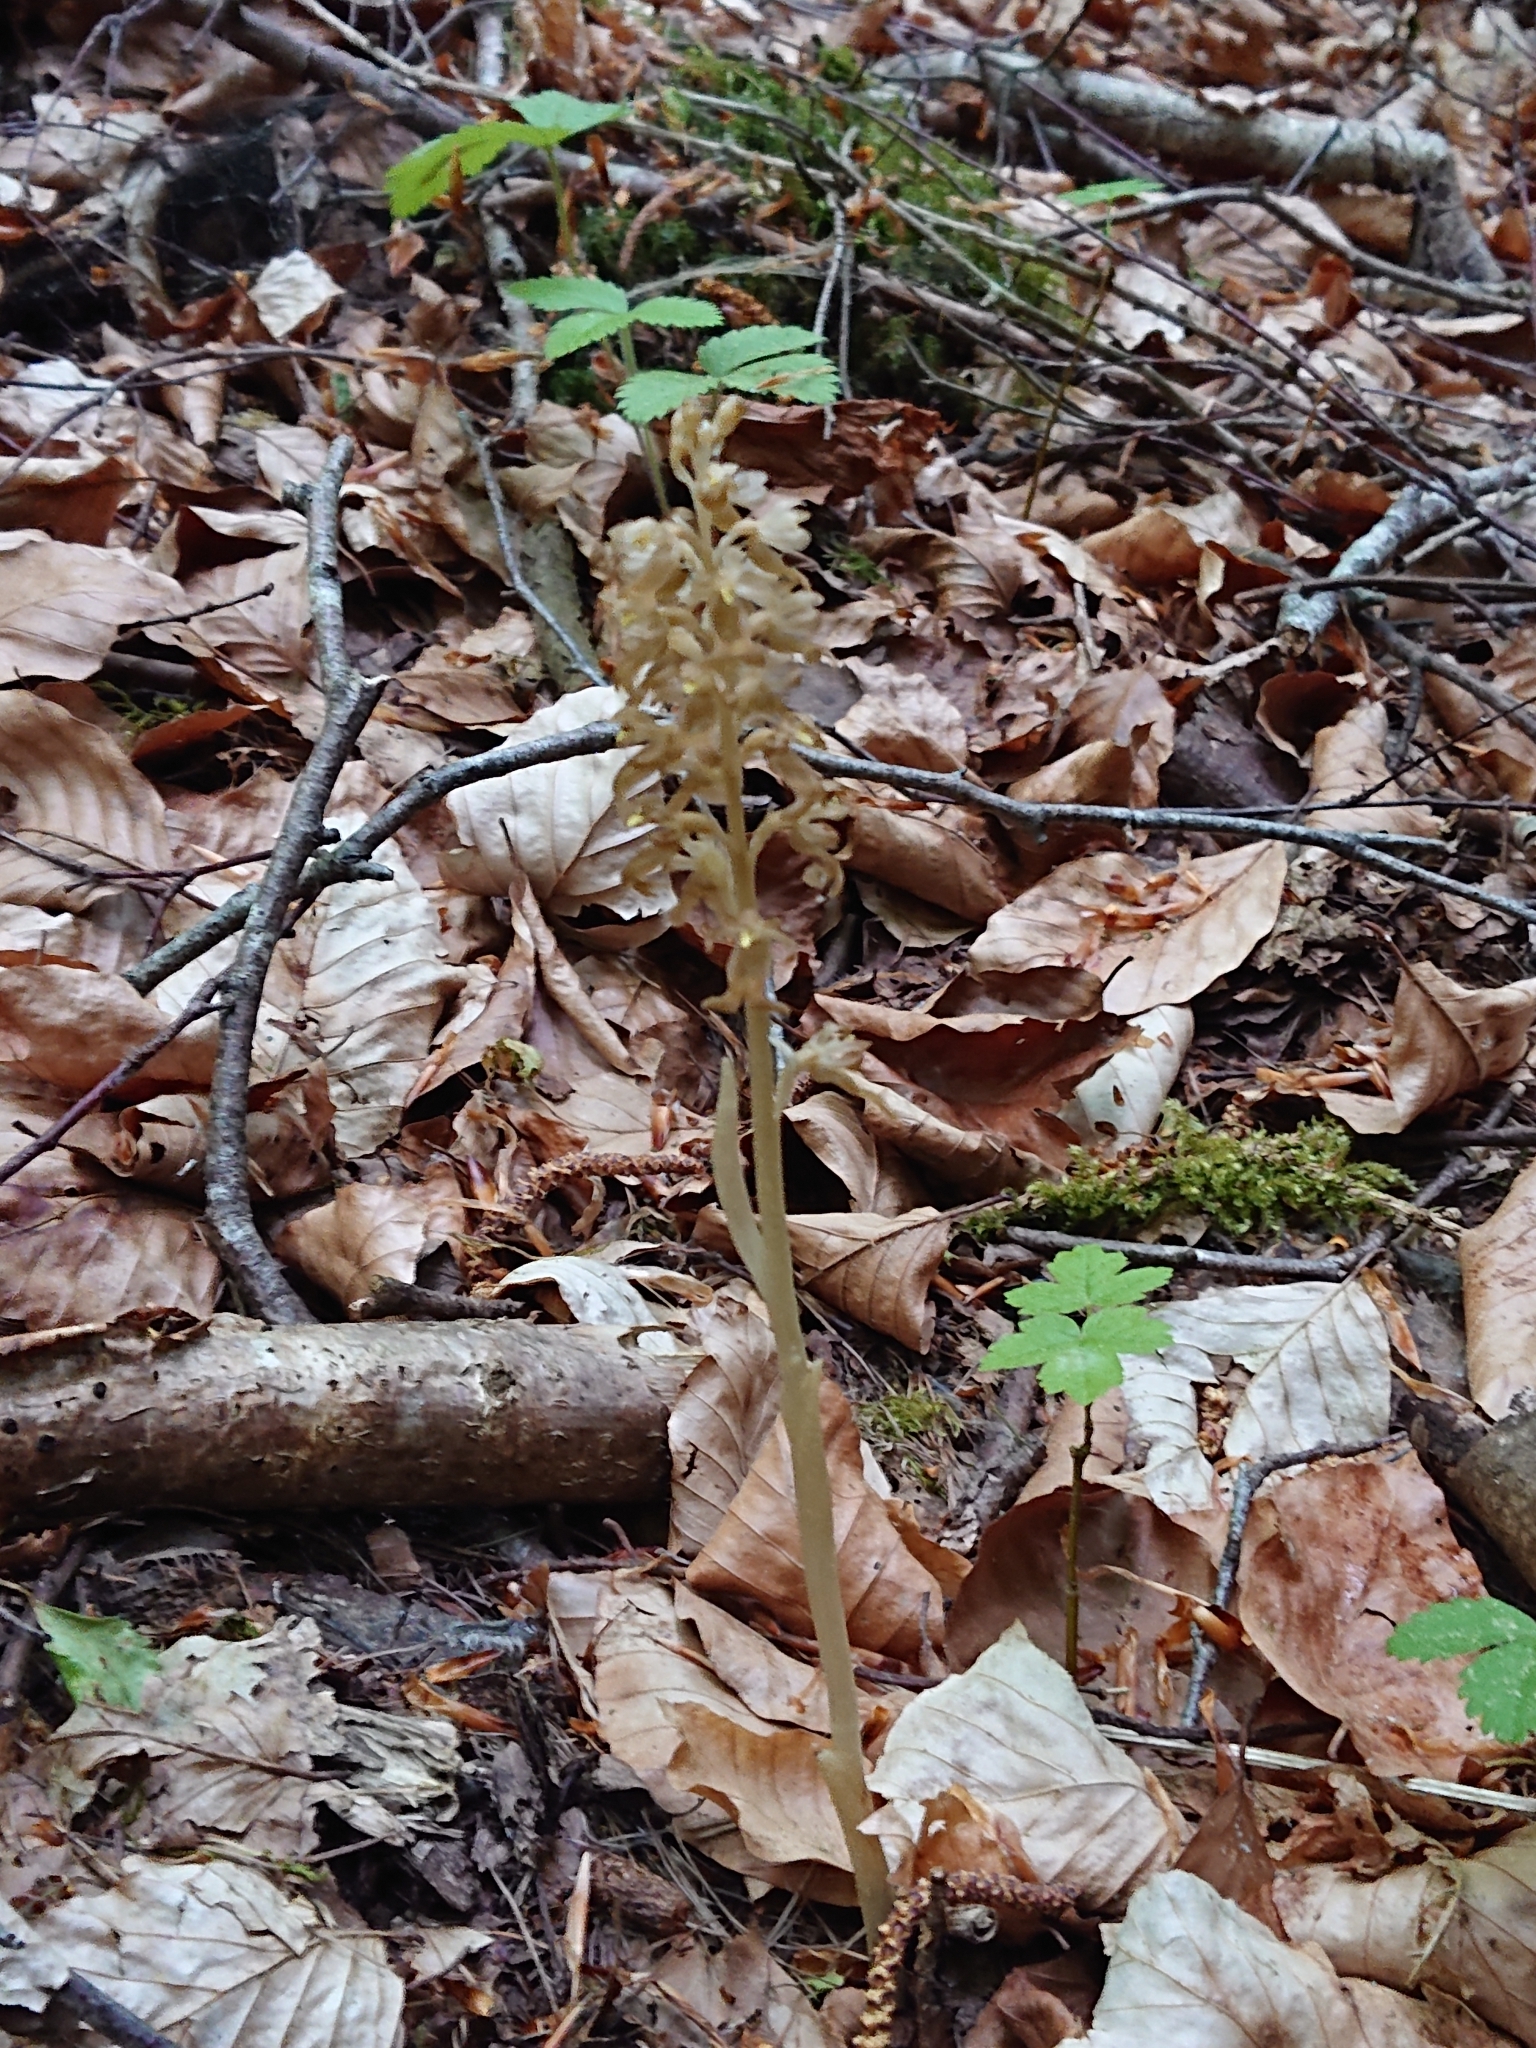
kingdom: Plantae
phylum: Tracheophyta
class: Liliopsida
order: Asparagales
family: Orchidaceae
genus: Neottia
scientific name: Neottia nidus-avis
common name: Bird's-nest orchid
